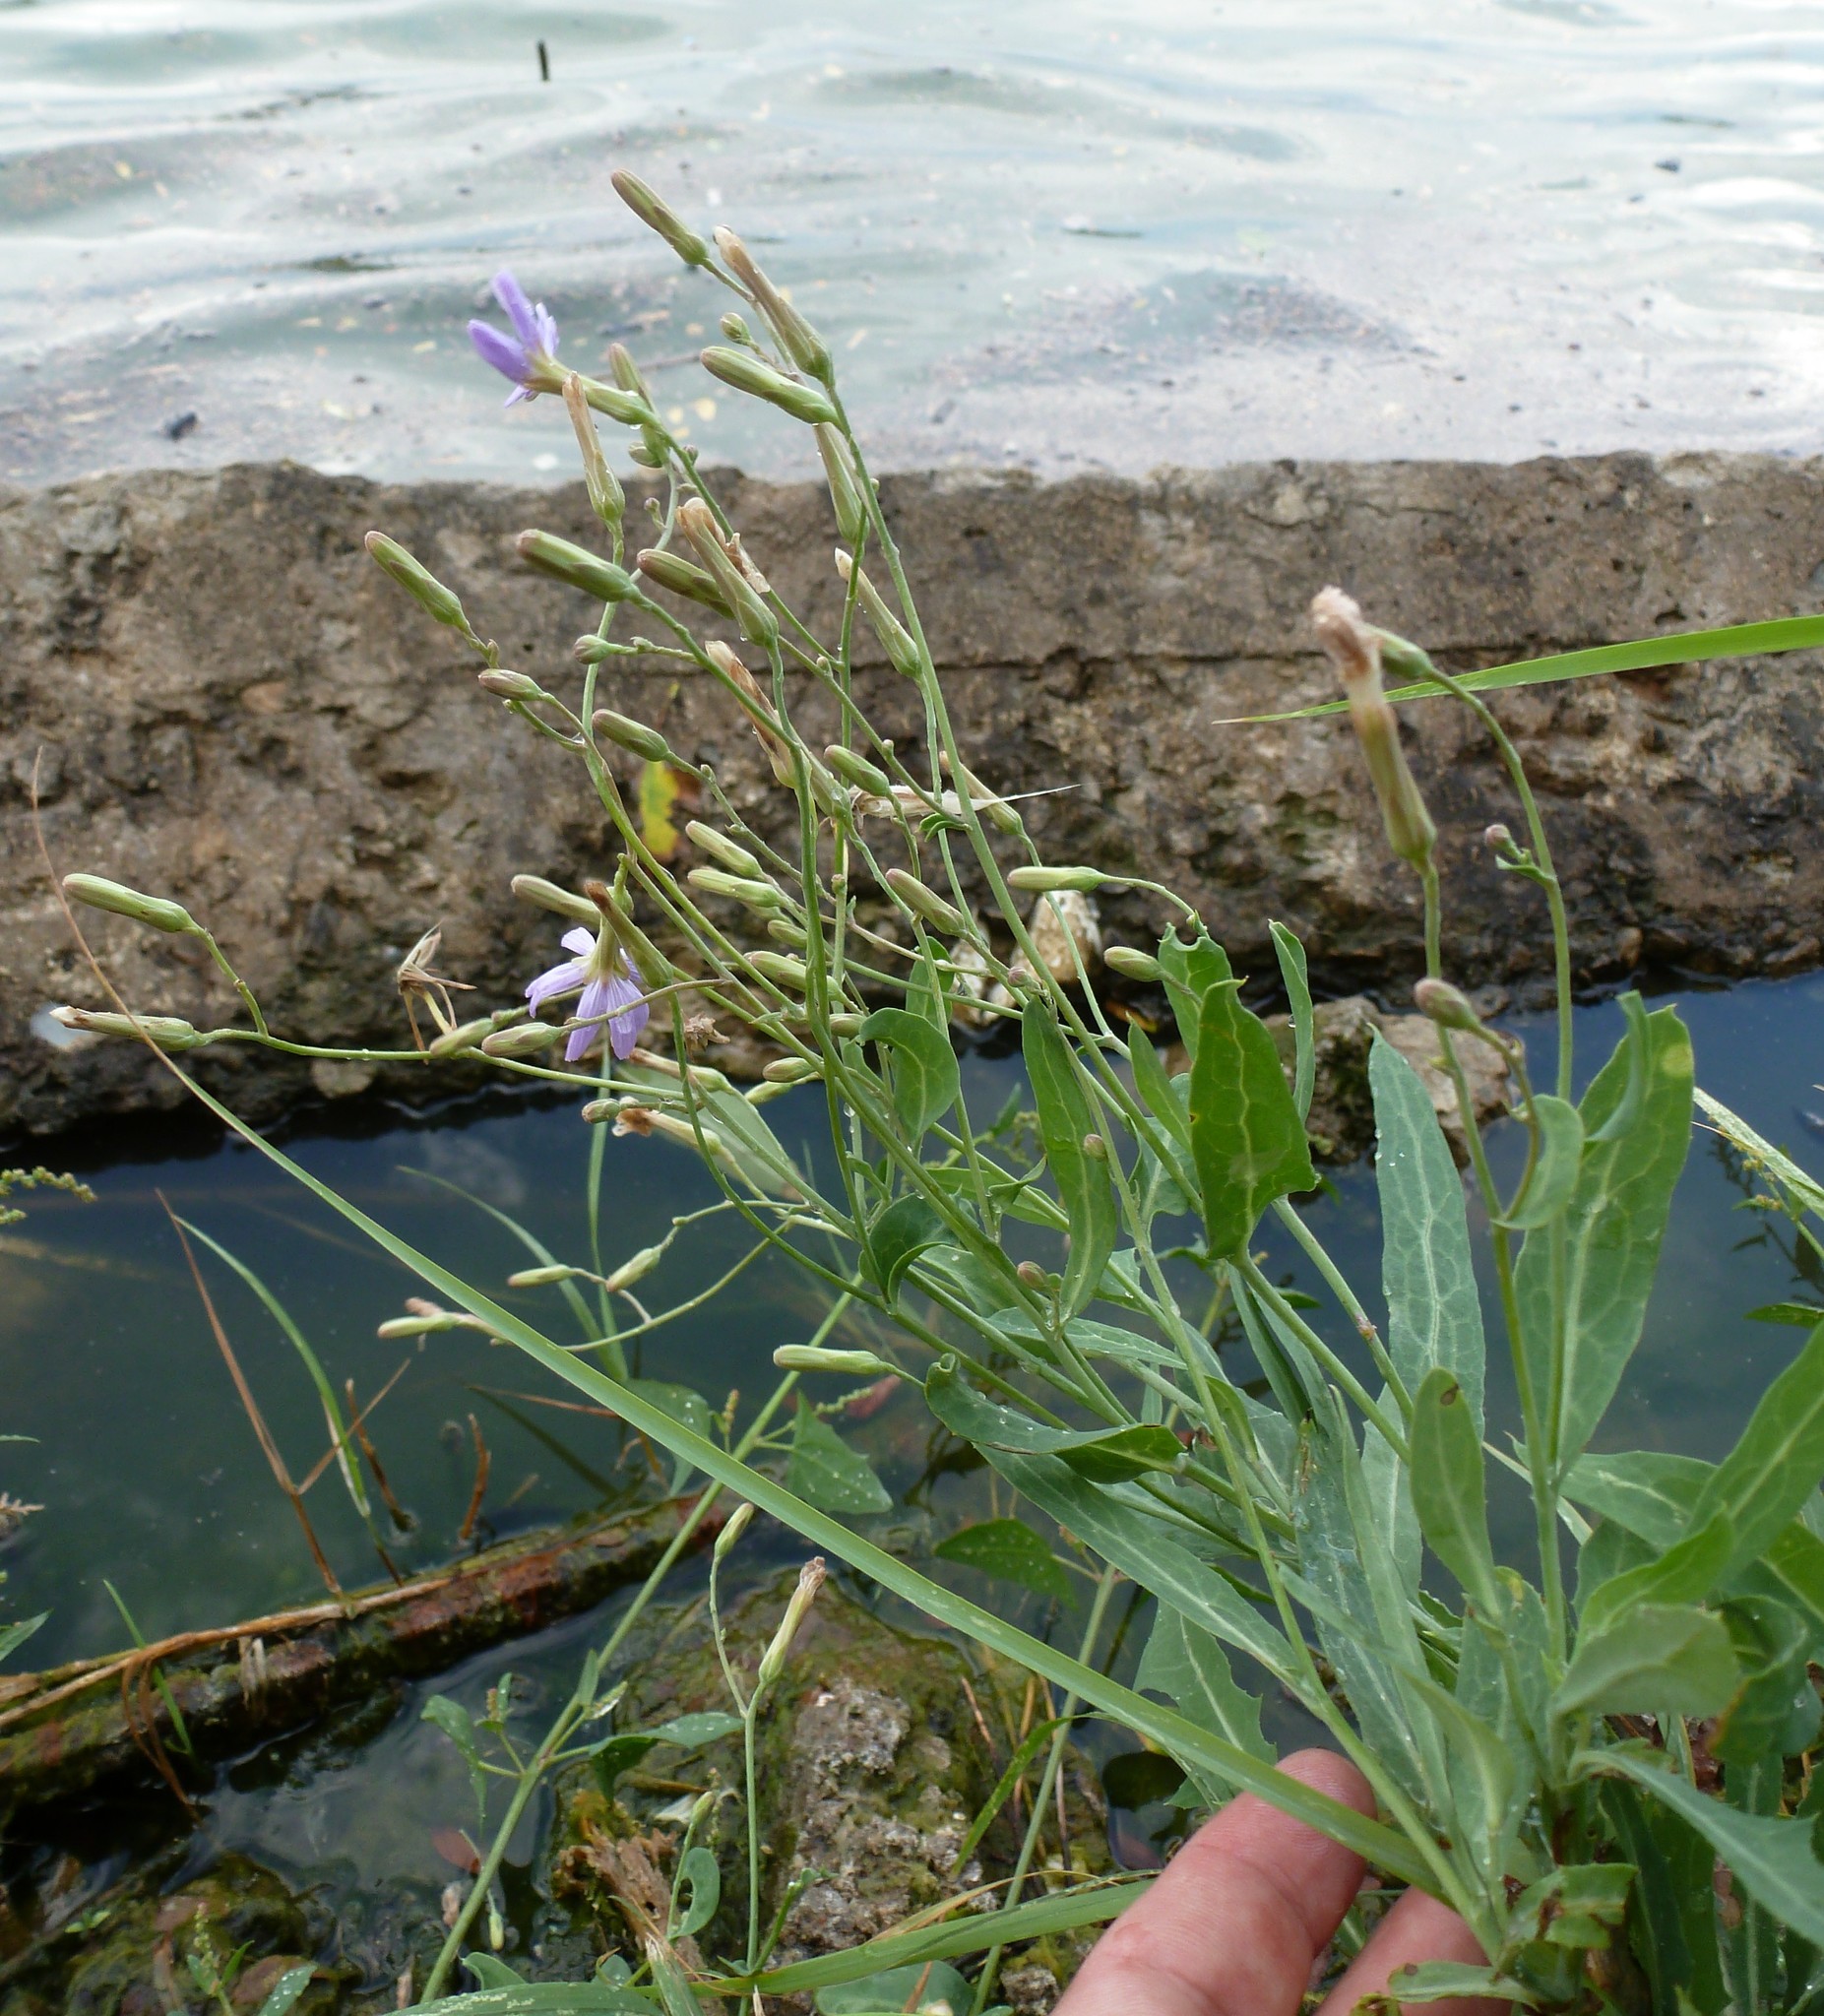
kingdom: Plantae
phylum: Tracheophyta
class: Magnoliopsida
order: Asterales
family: Asteraceae
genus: Lactuca
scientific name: Lactuca tatarica
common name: Blue lettuce
